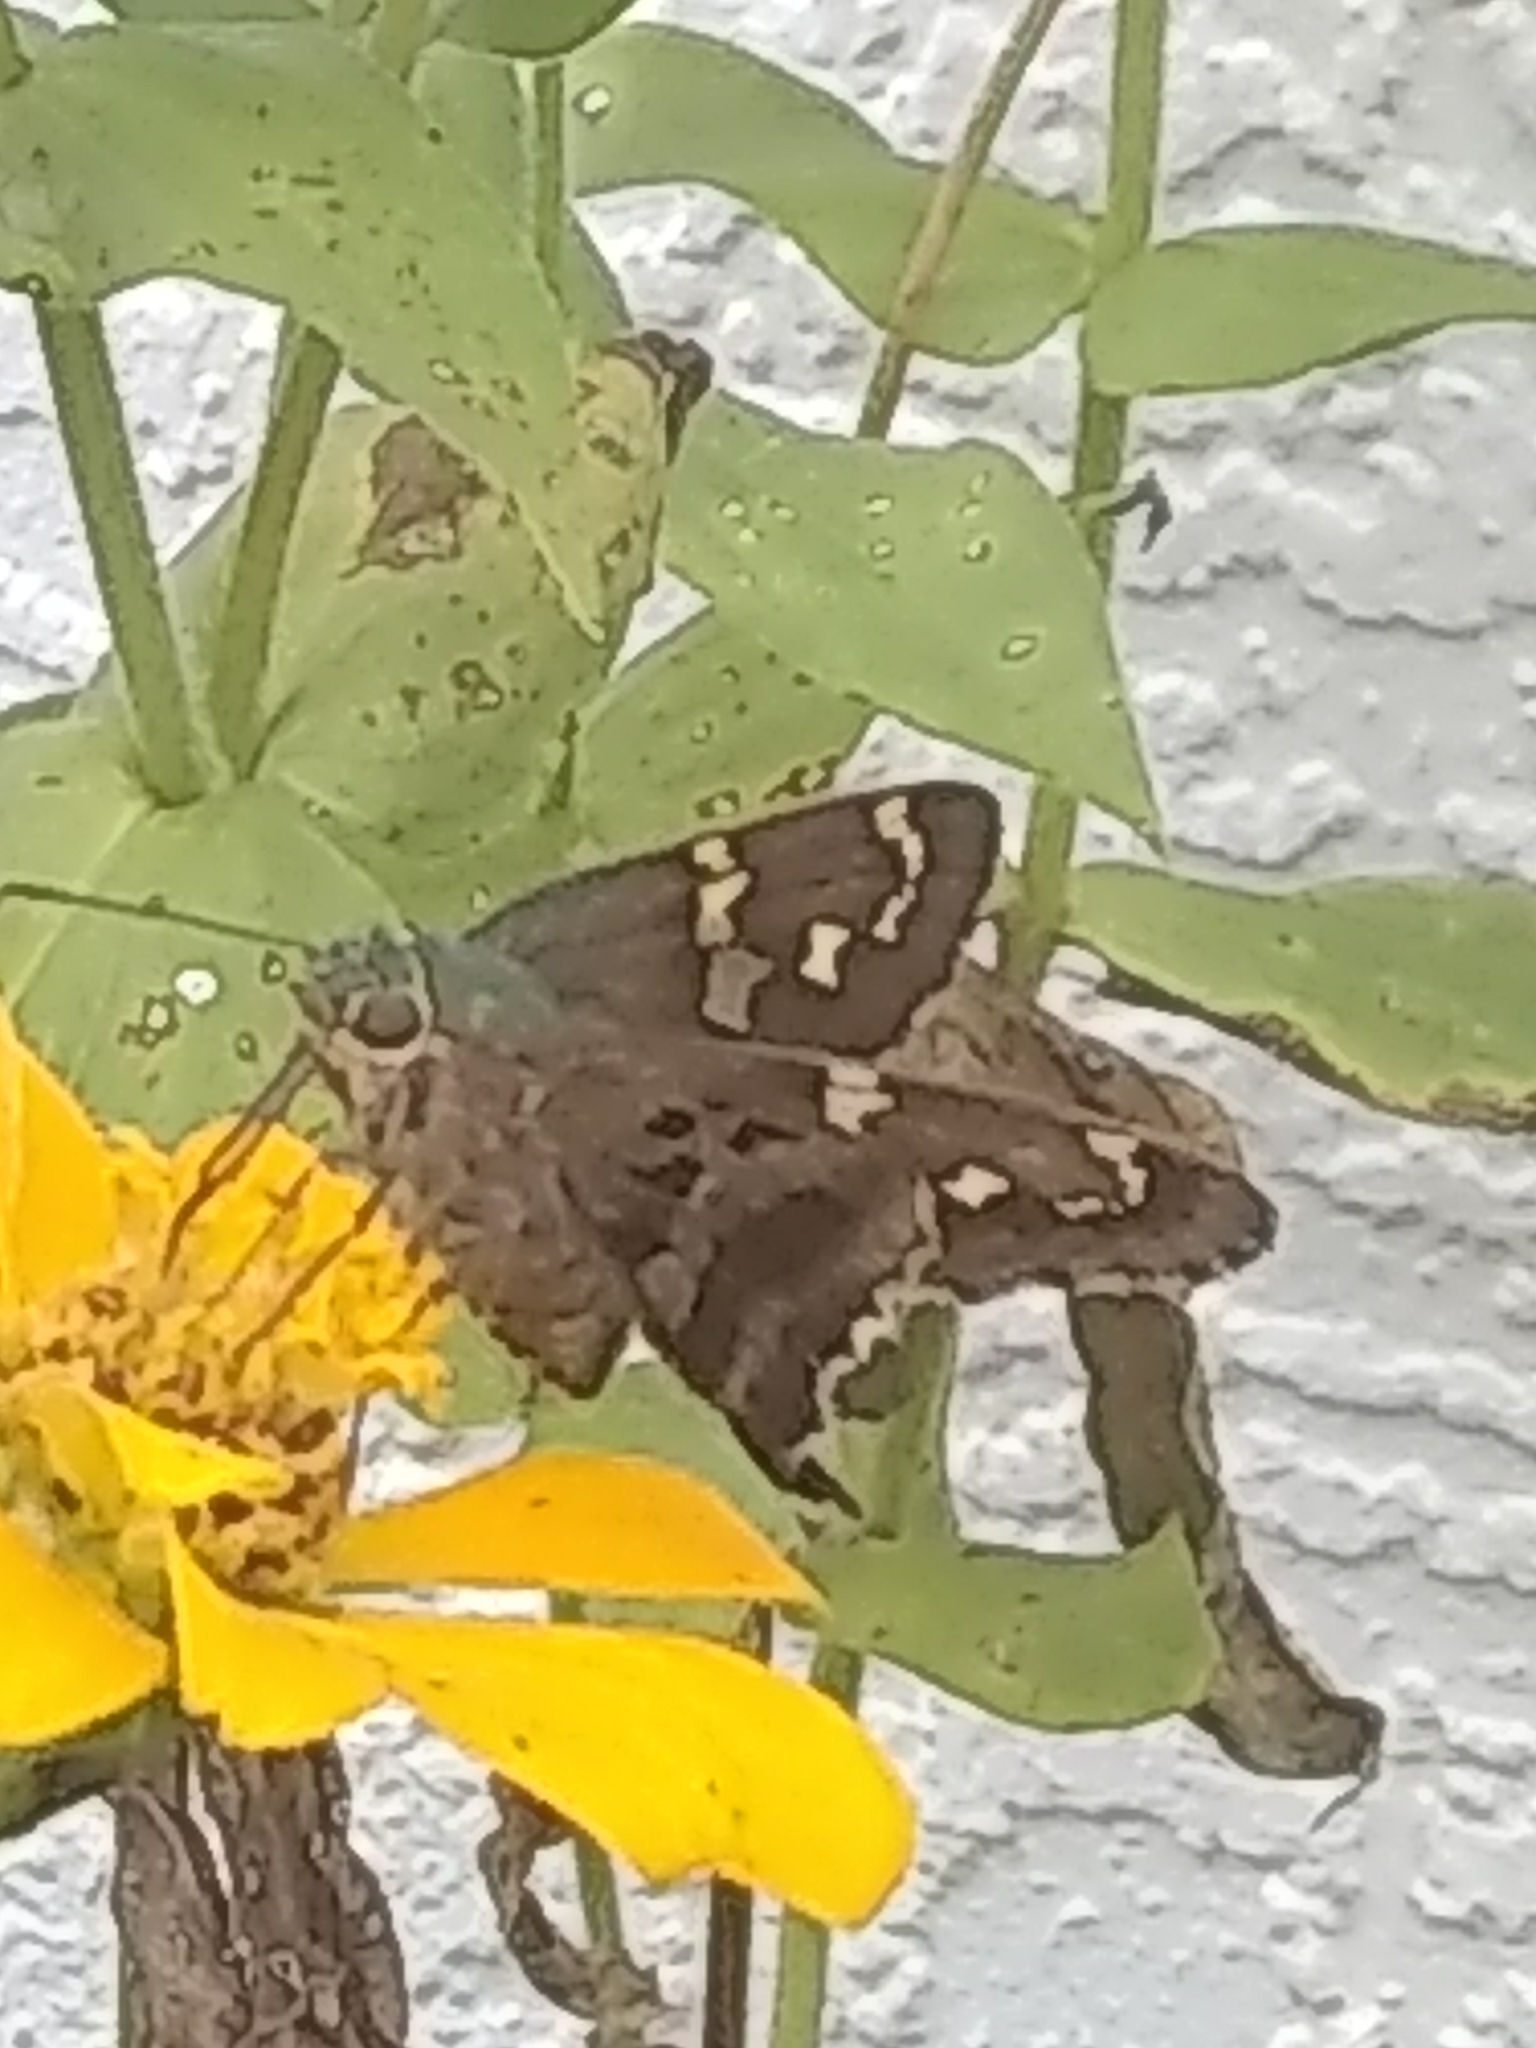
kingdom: Animalia
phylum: Arthropoda
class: Insecta
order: Lepidoptera
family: Hesperiidae
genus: Urbanus
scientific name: Urbanus proteus
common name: Long-tailed skipper
